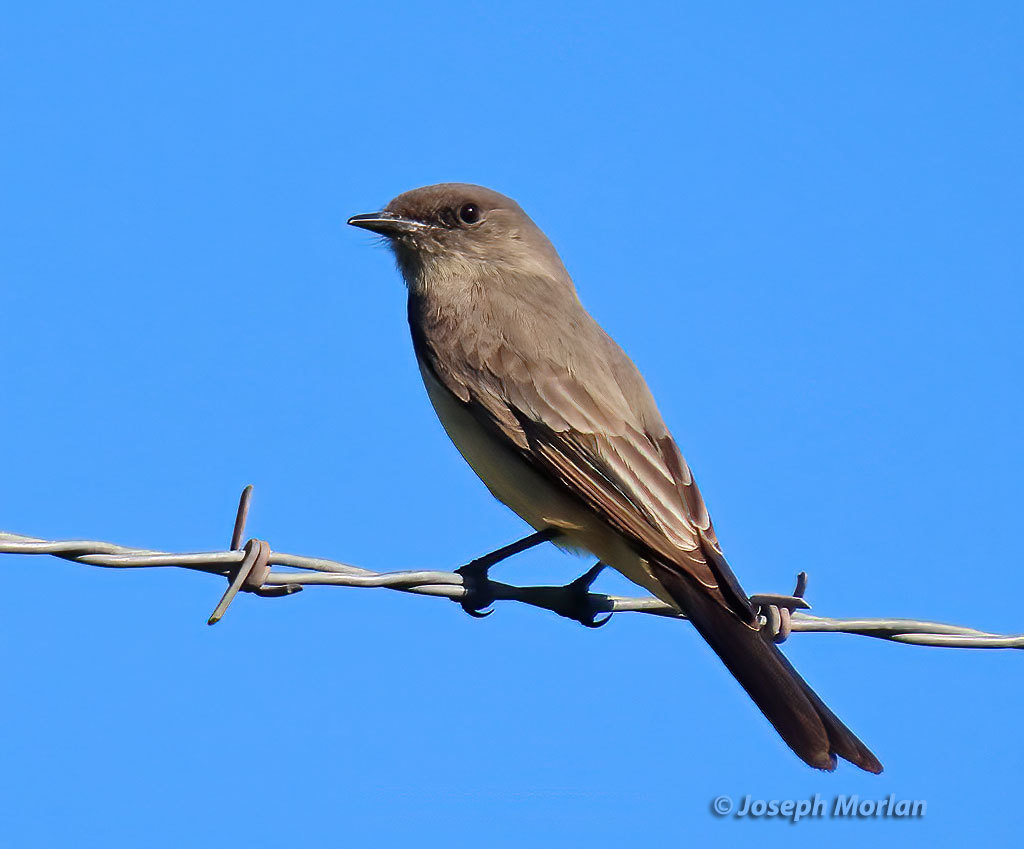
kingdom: Animalia
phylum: Chordata
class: Aves
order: Passeriformes
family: Tyrannidae
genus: Sayornis
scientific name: Sayornis saya
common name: Say's phoebe
